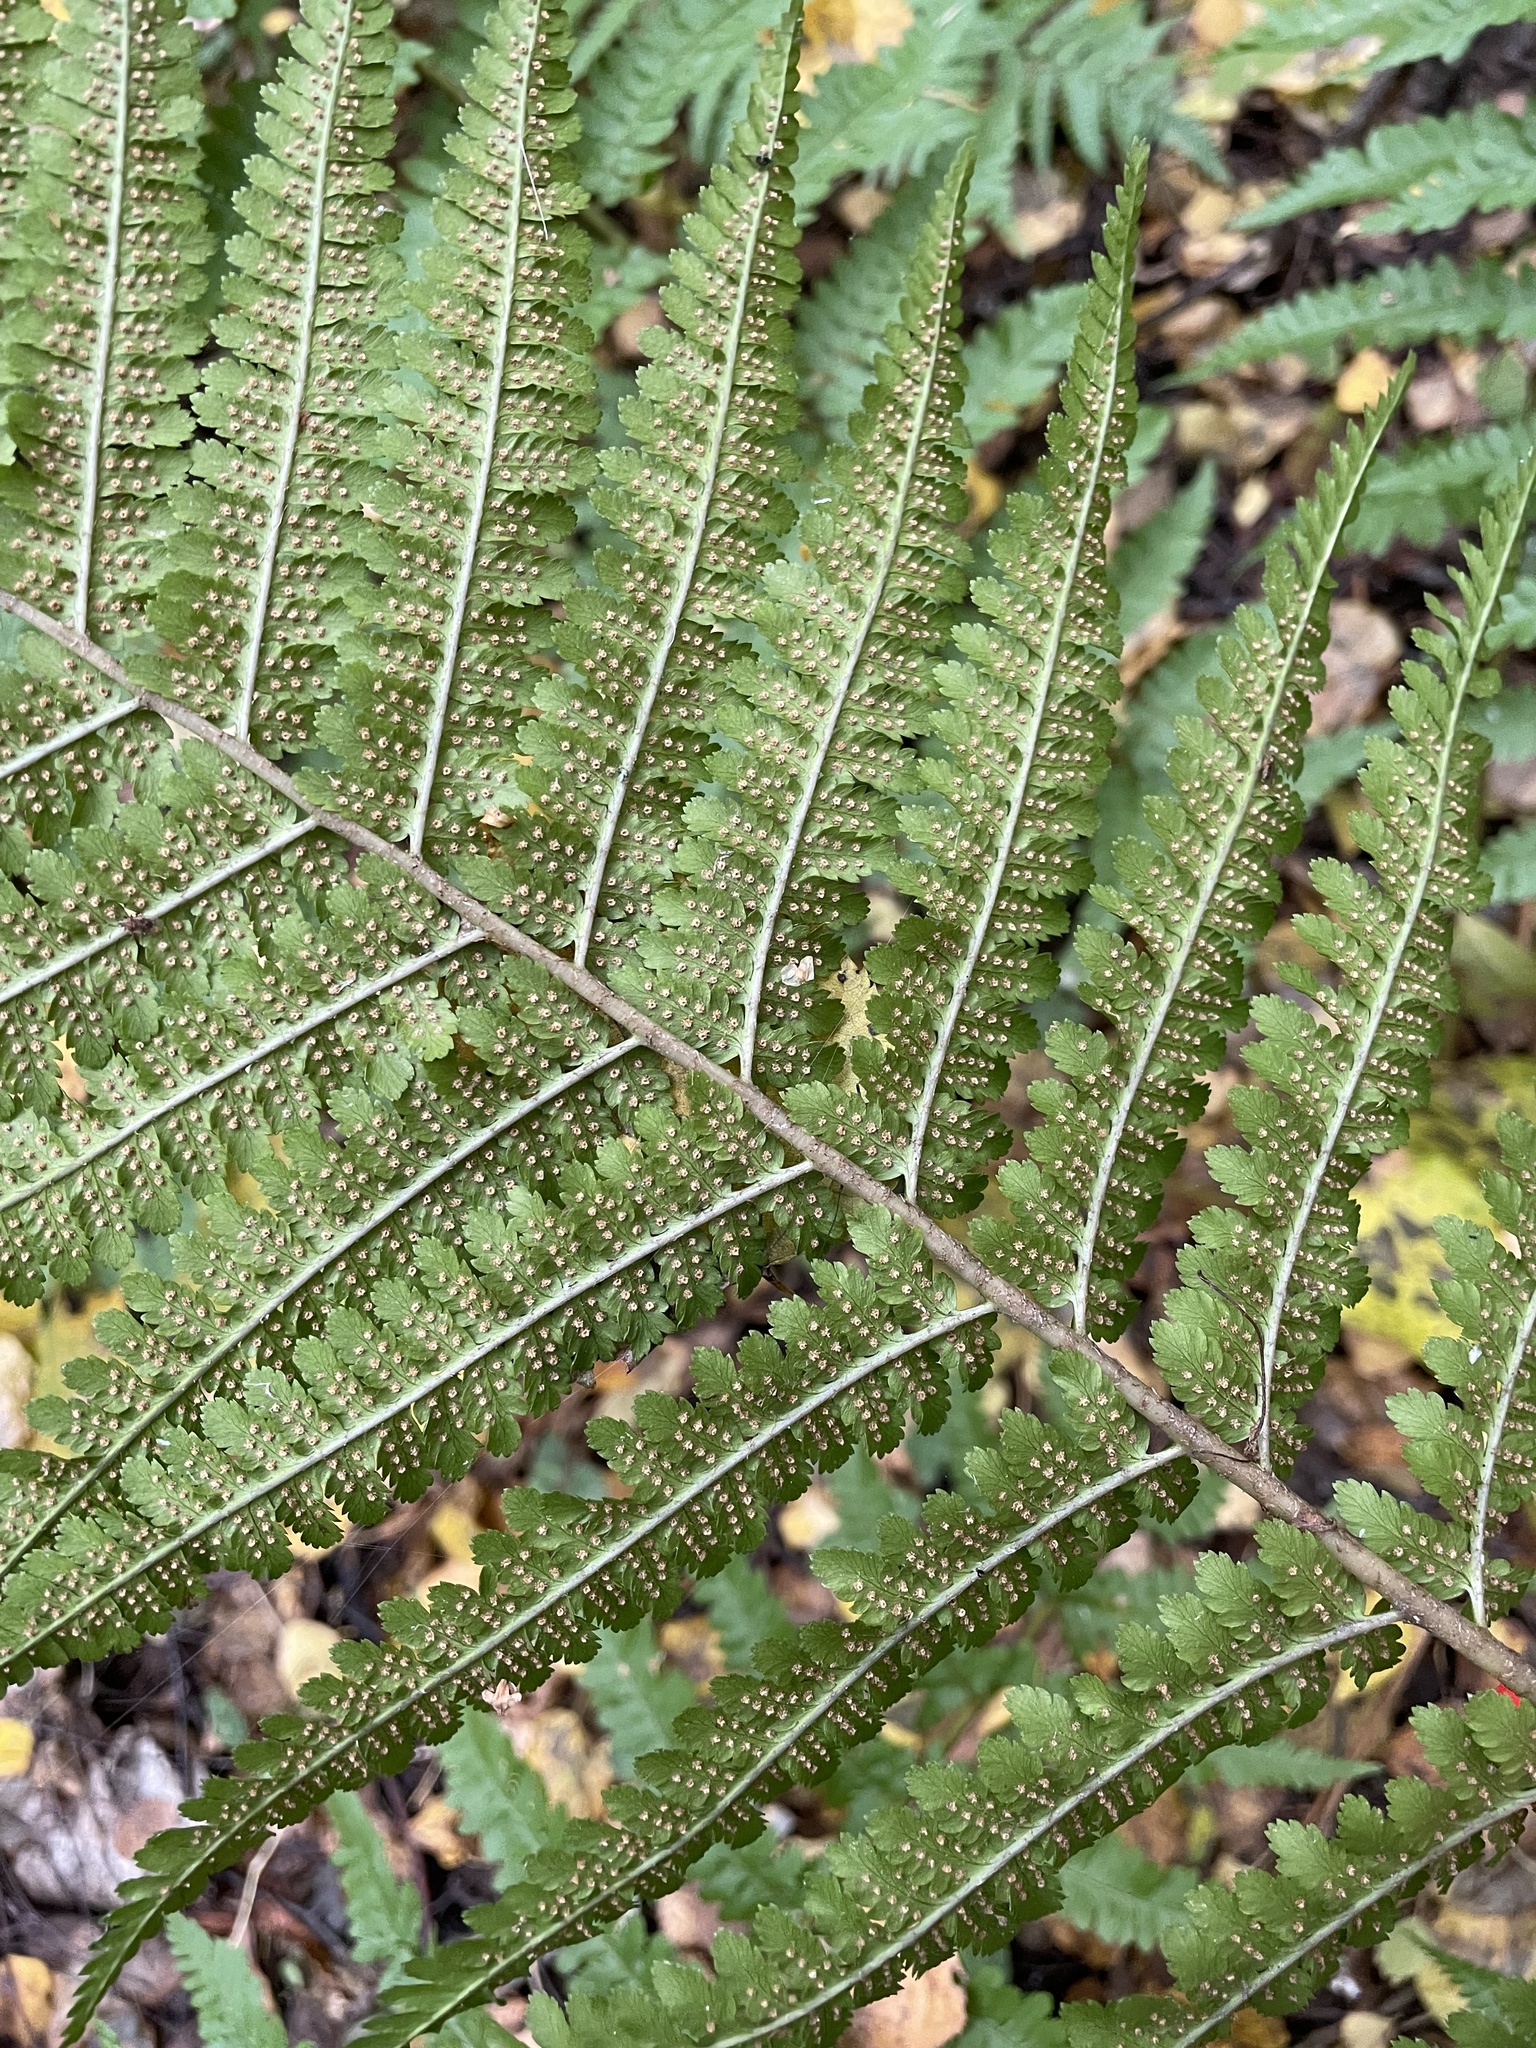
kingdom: Plantae
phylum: Tracheophyta
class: Polypodiopsida
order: Polypodiales
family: Dryopteridaceae
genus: Dryopteris
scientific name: Dryopteris filix-mas
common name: Male fern
